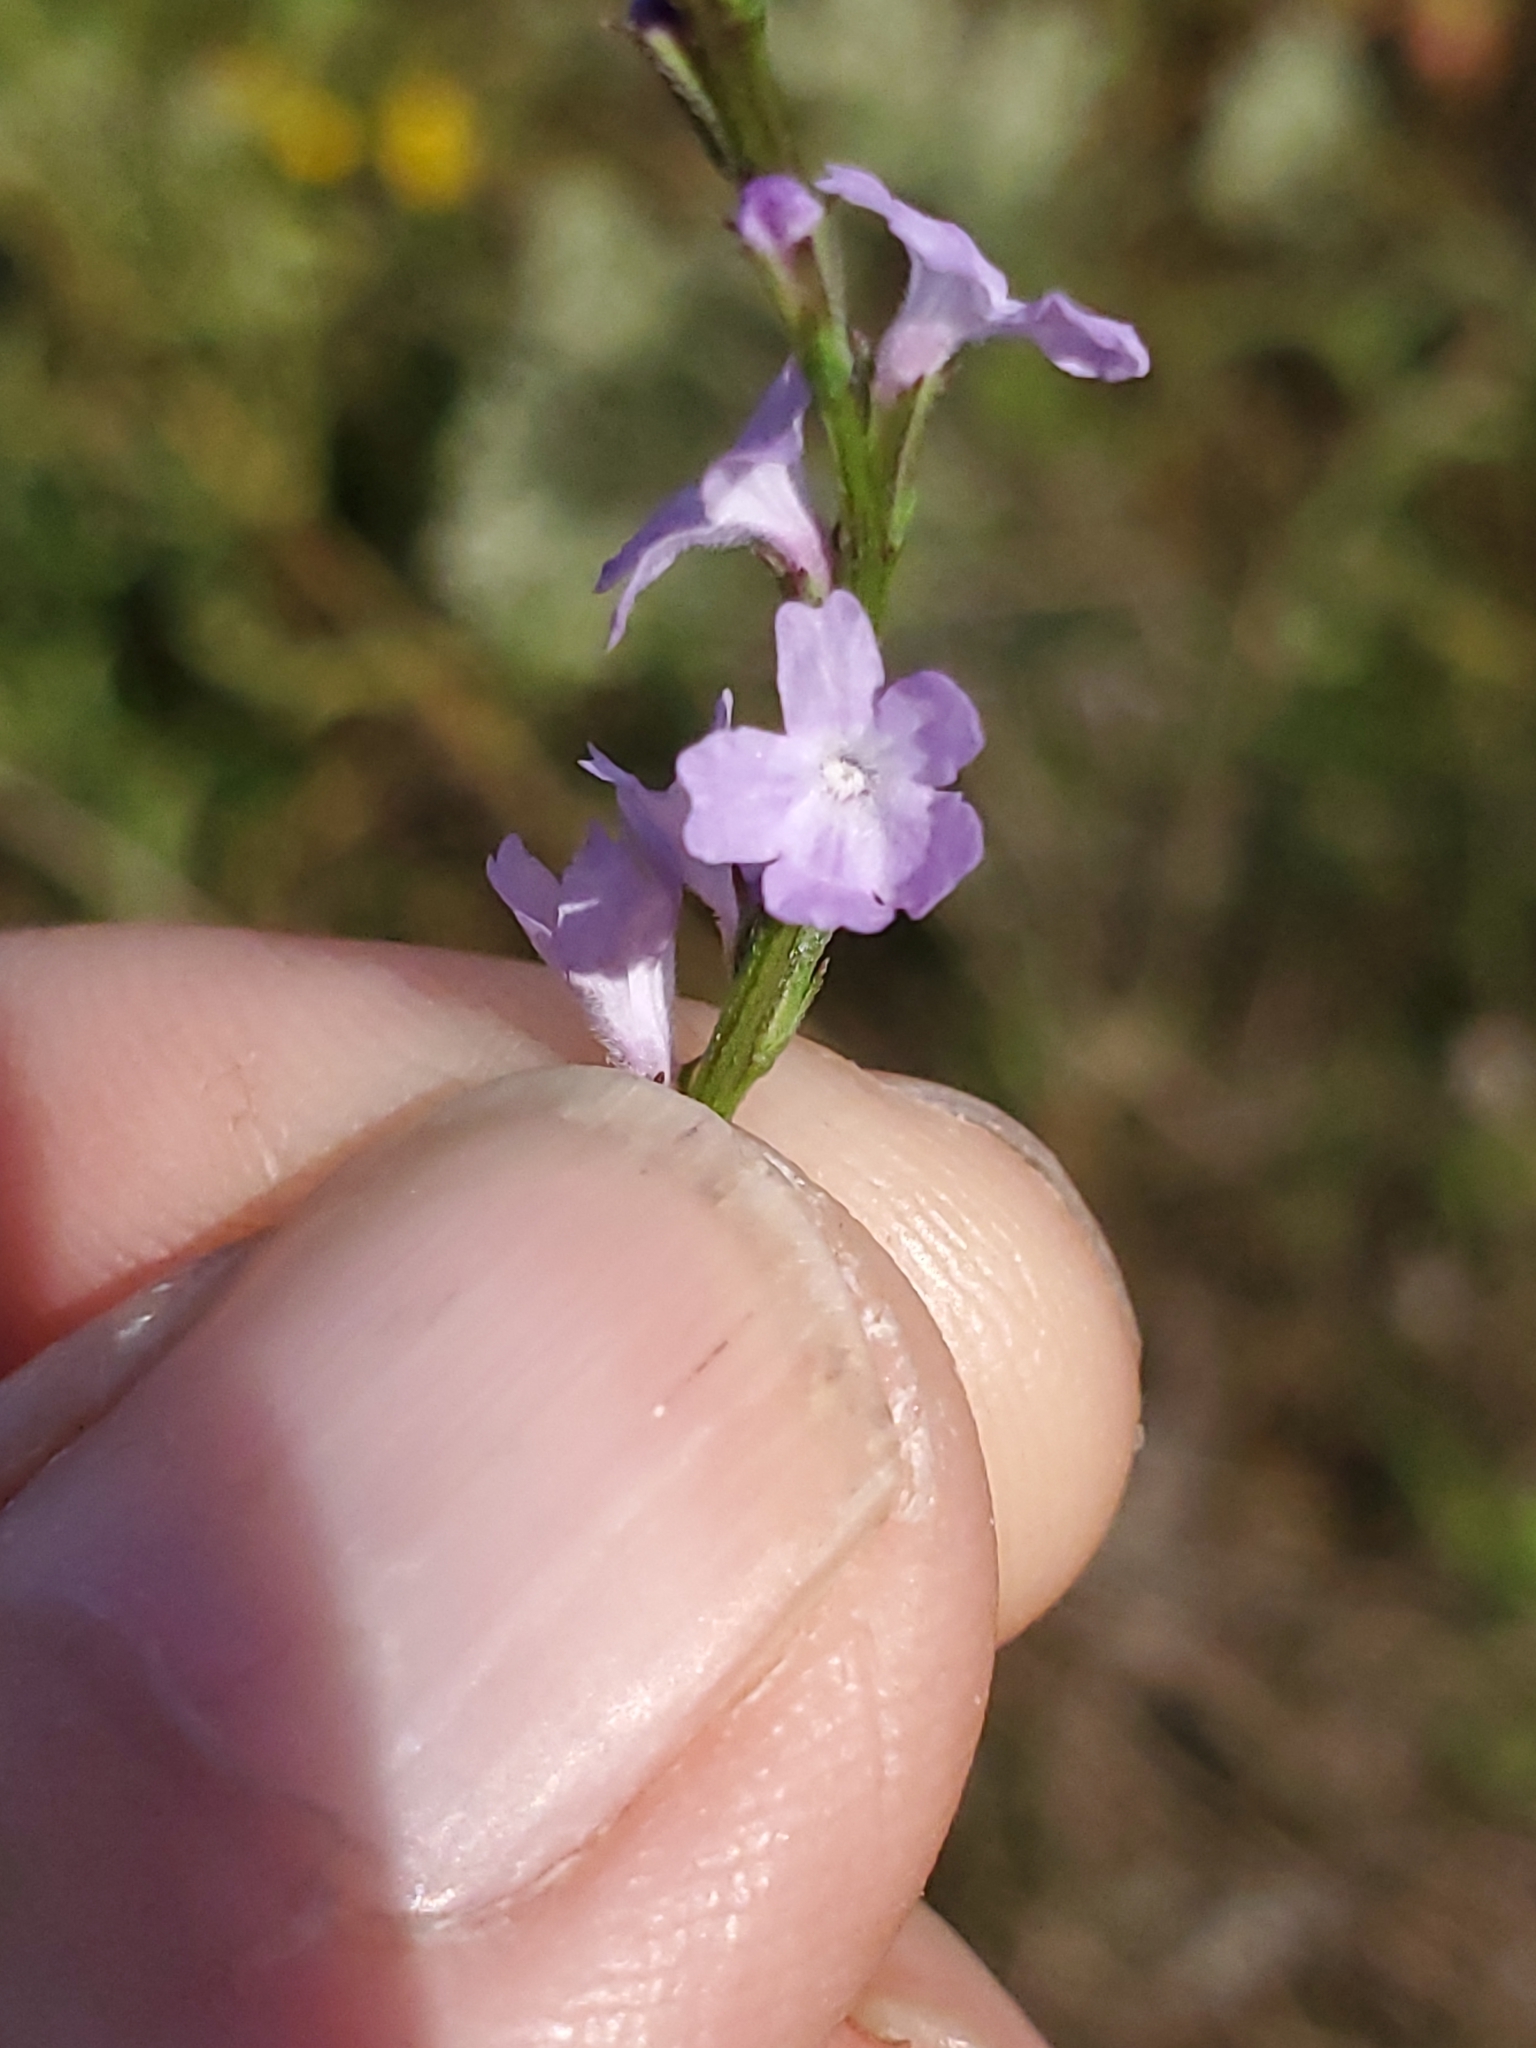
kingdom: Plantae
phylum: Tracheophyta
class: Magnoliopsida
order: Lamiales
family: Verbenaceae
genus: Verbena
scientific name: Verbena halei
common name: Texas vervain
